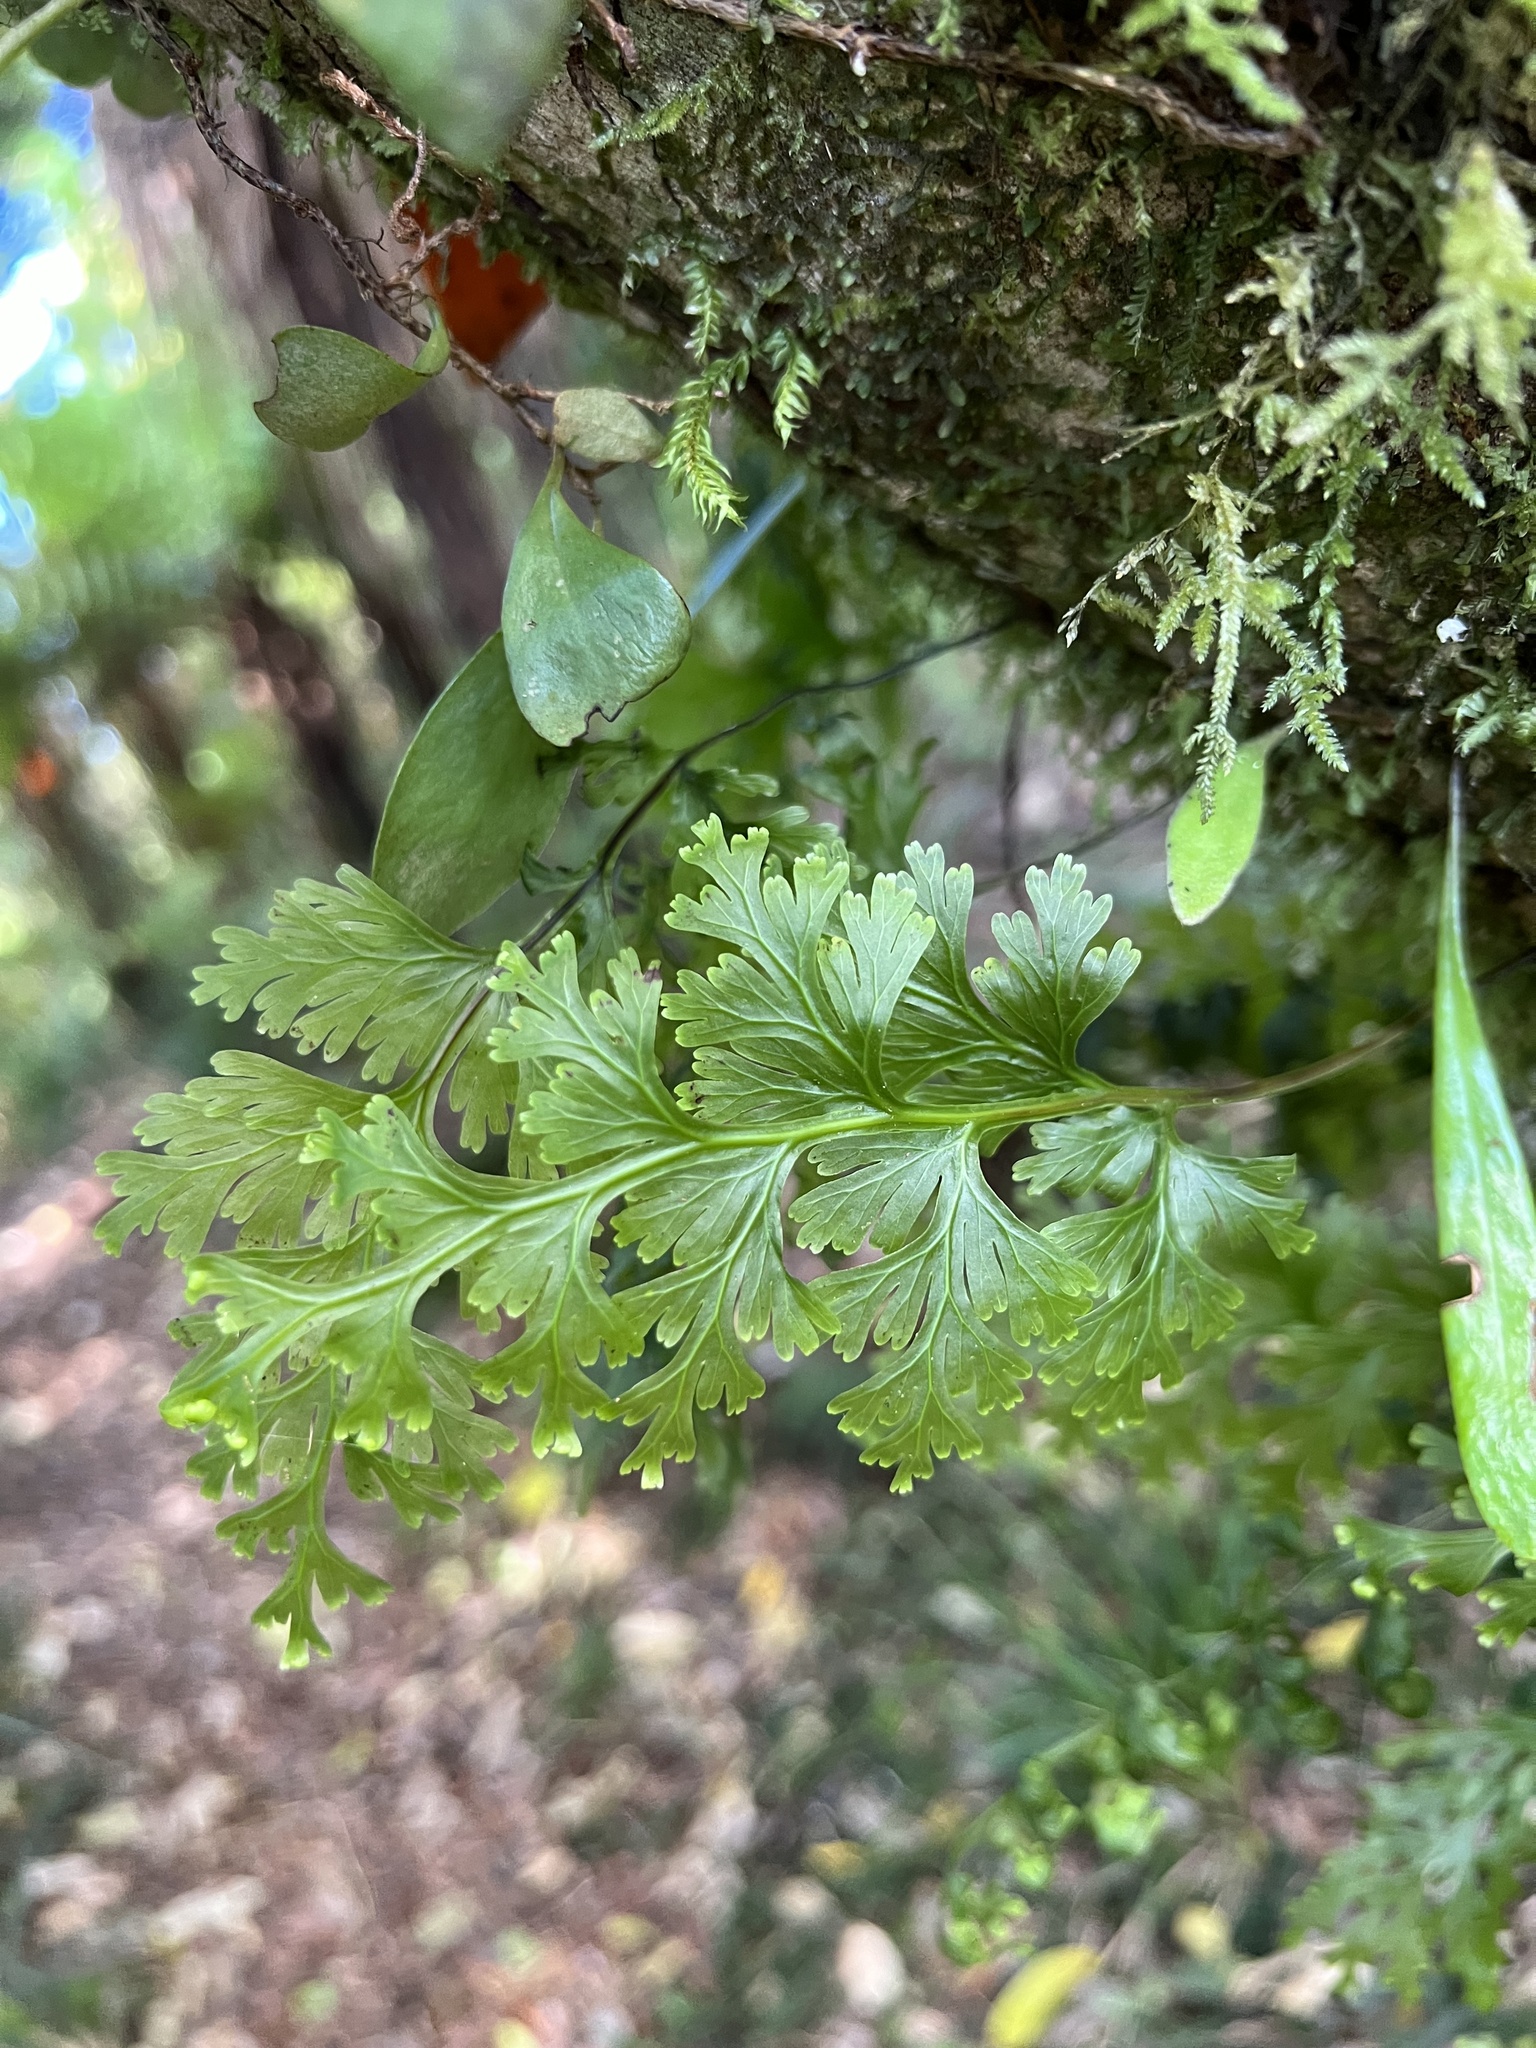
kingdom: Plantae
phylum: Tracheophyta
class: Polypodiopsida
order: Hymenophyllales
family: Hymenophyllaceae
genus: Hymenophyllum
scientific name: Hymenophyllum dilatatum
